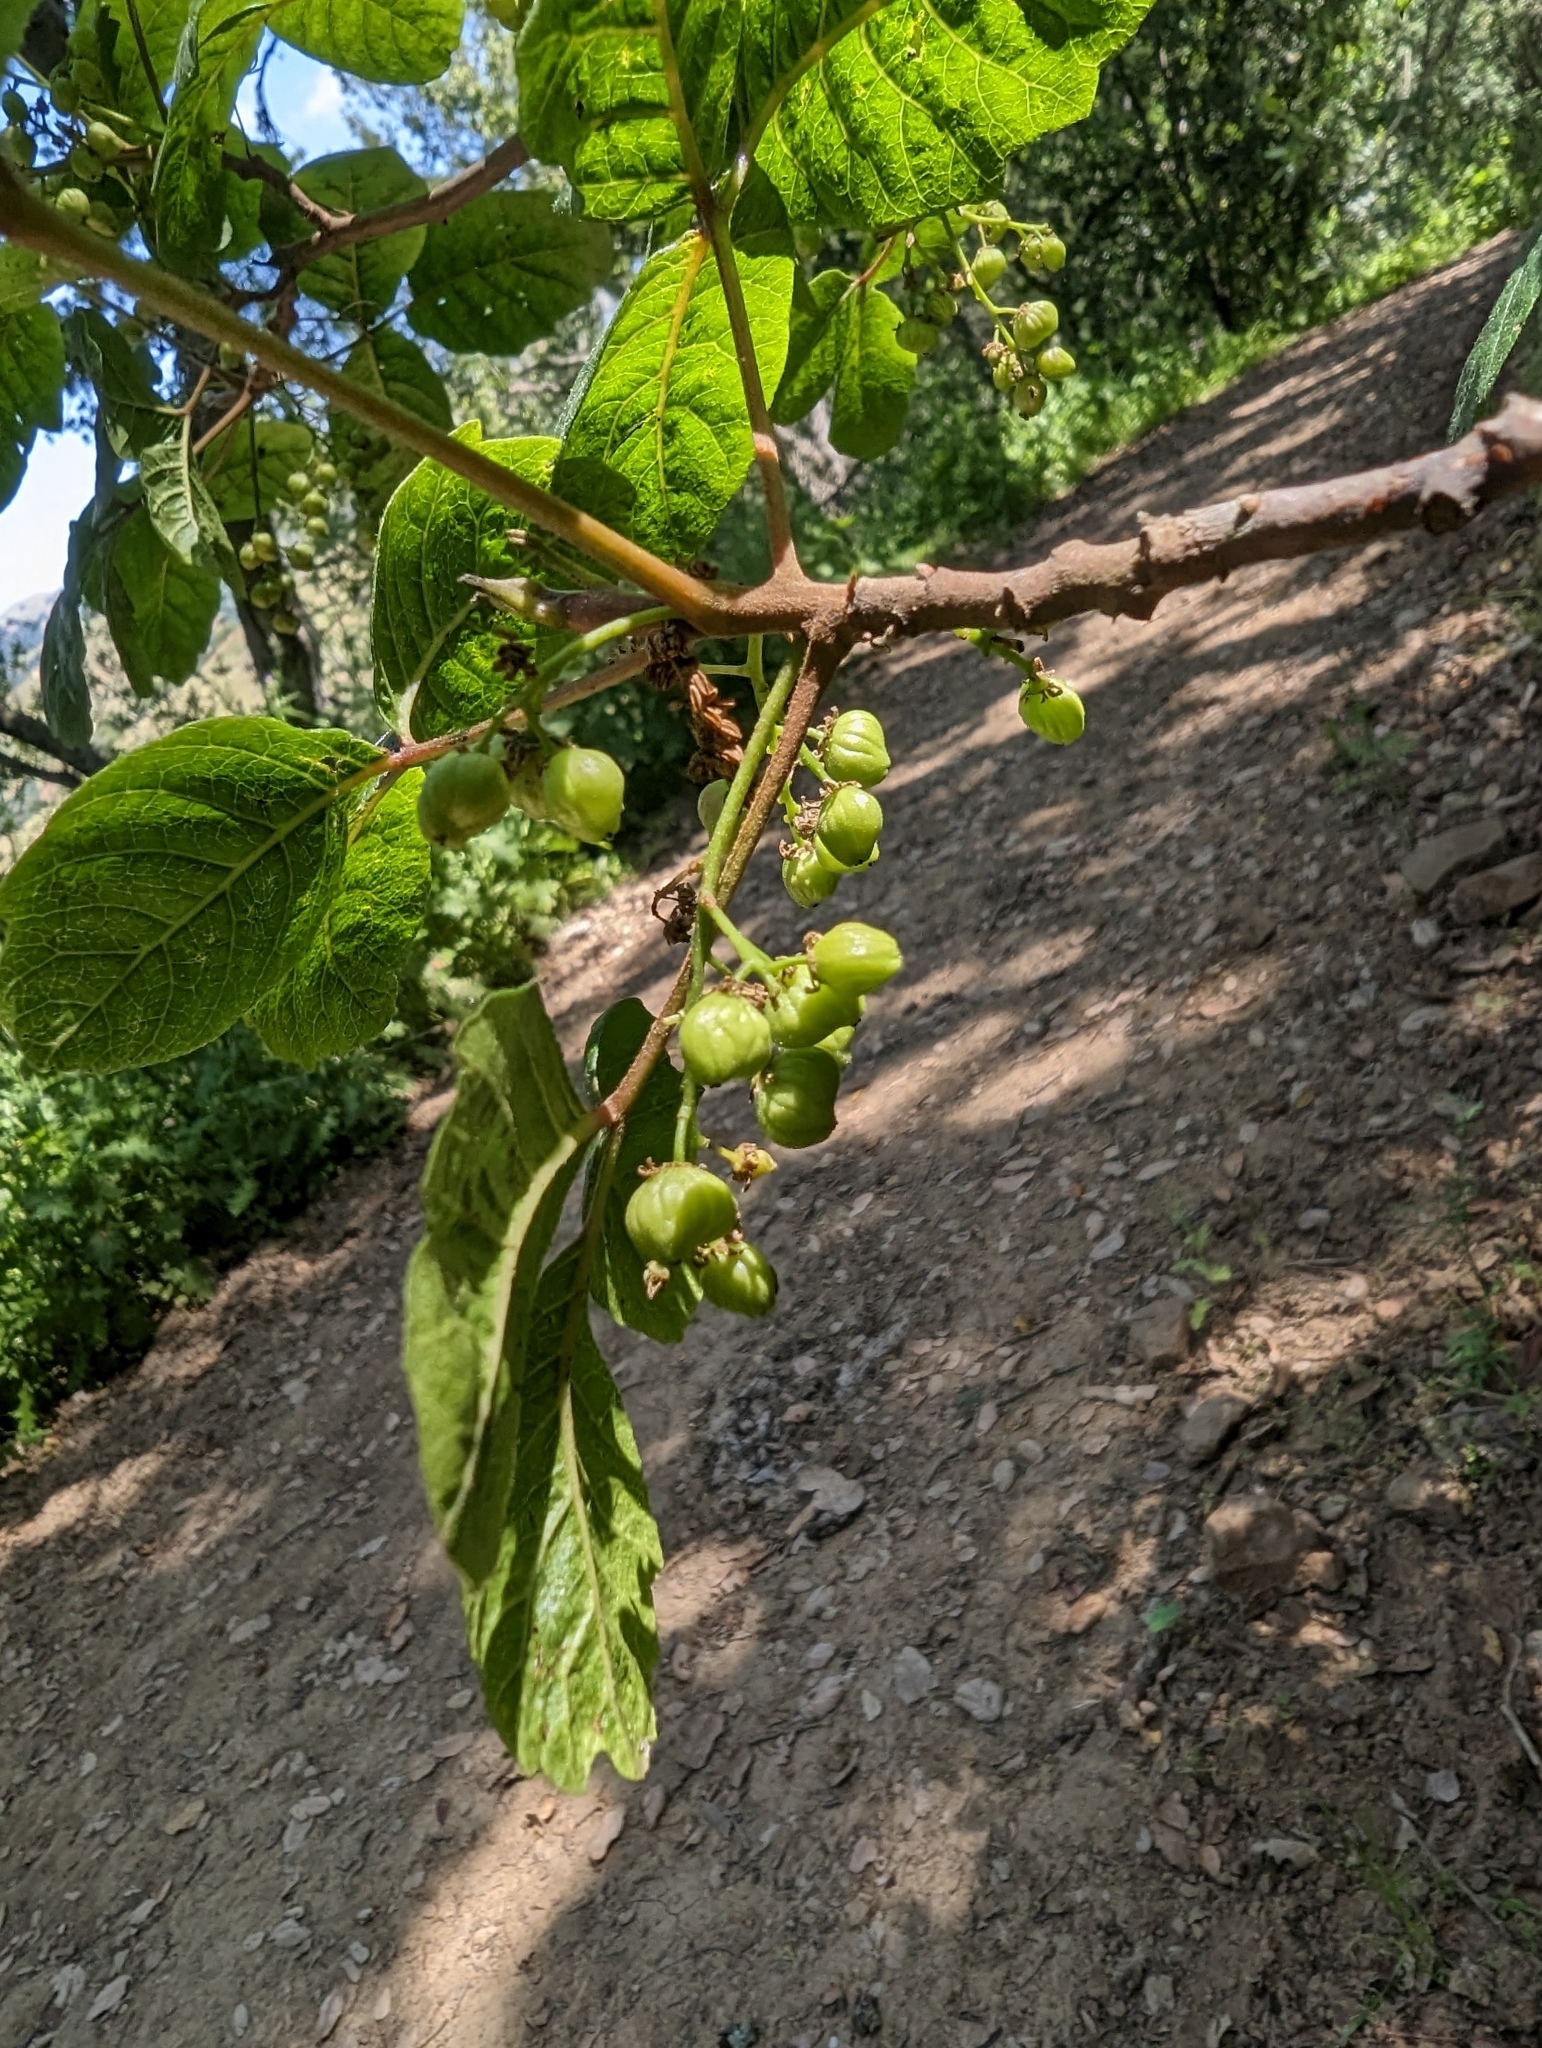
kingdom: Plantae
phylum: Tracheophyta
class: Magnoliopsida
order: Sapindales
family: Anacardiaceae
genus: Toxicodendron
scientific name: Toxicodendron diversilobum
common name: Pacific poison-oak
